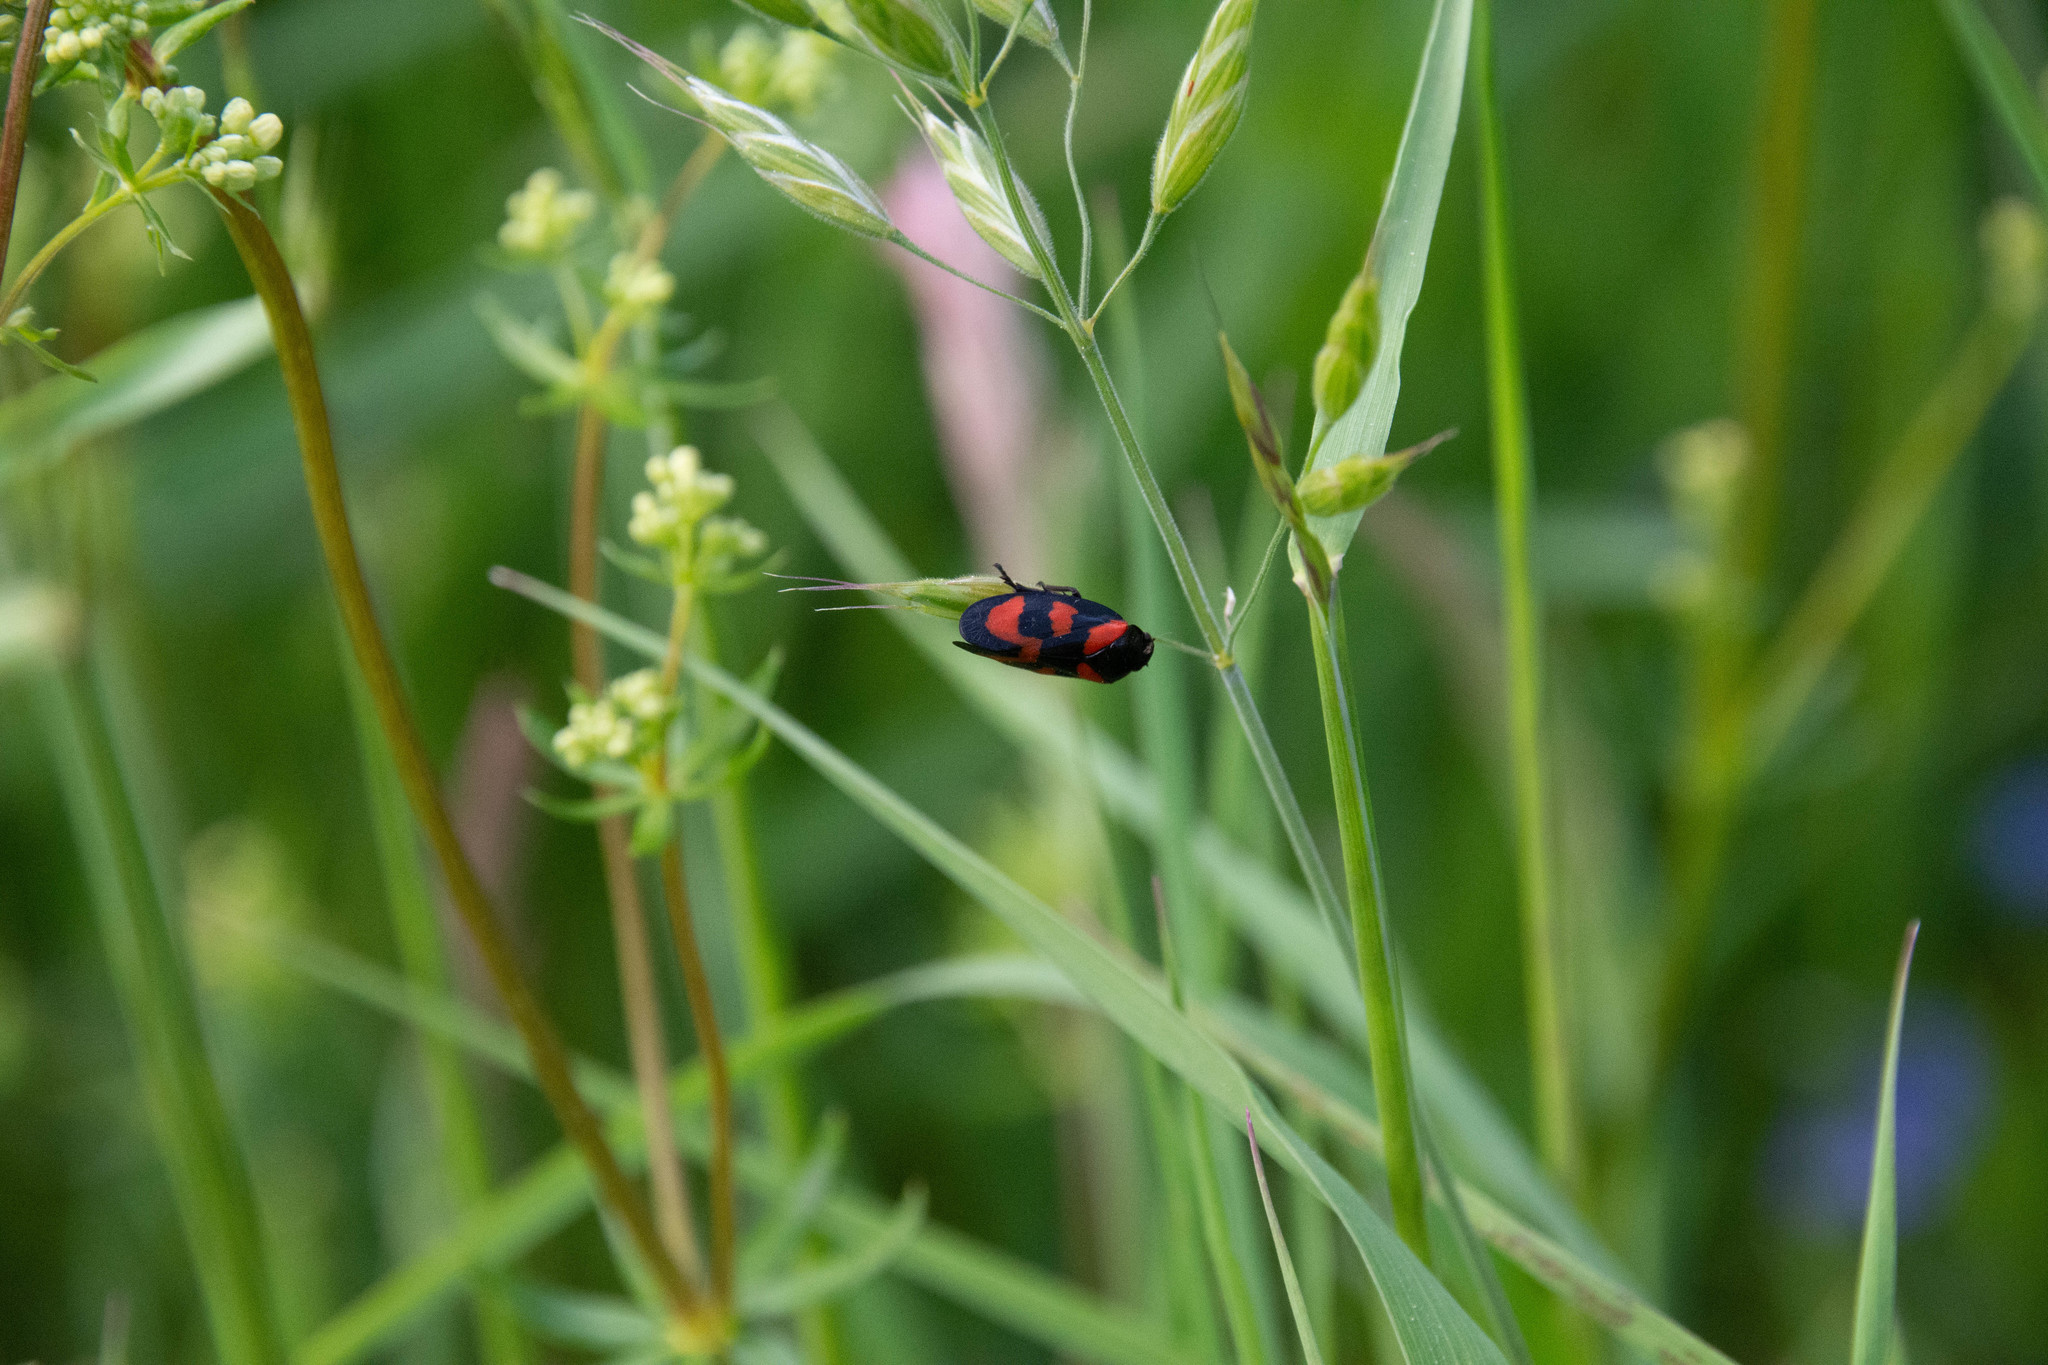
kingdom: Animalia
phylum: Arthropoda
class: Insecta
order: Hemiptera
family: Cercopidae
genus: Cercopis
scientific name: Cercopis vulnerata
